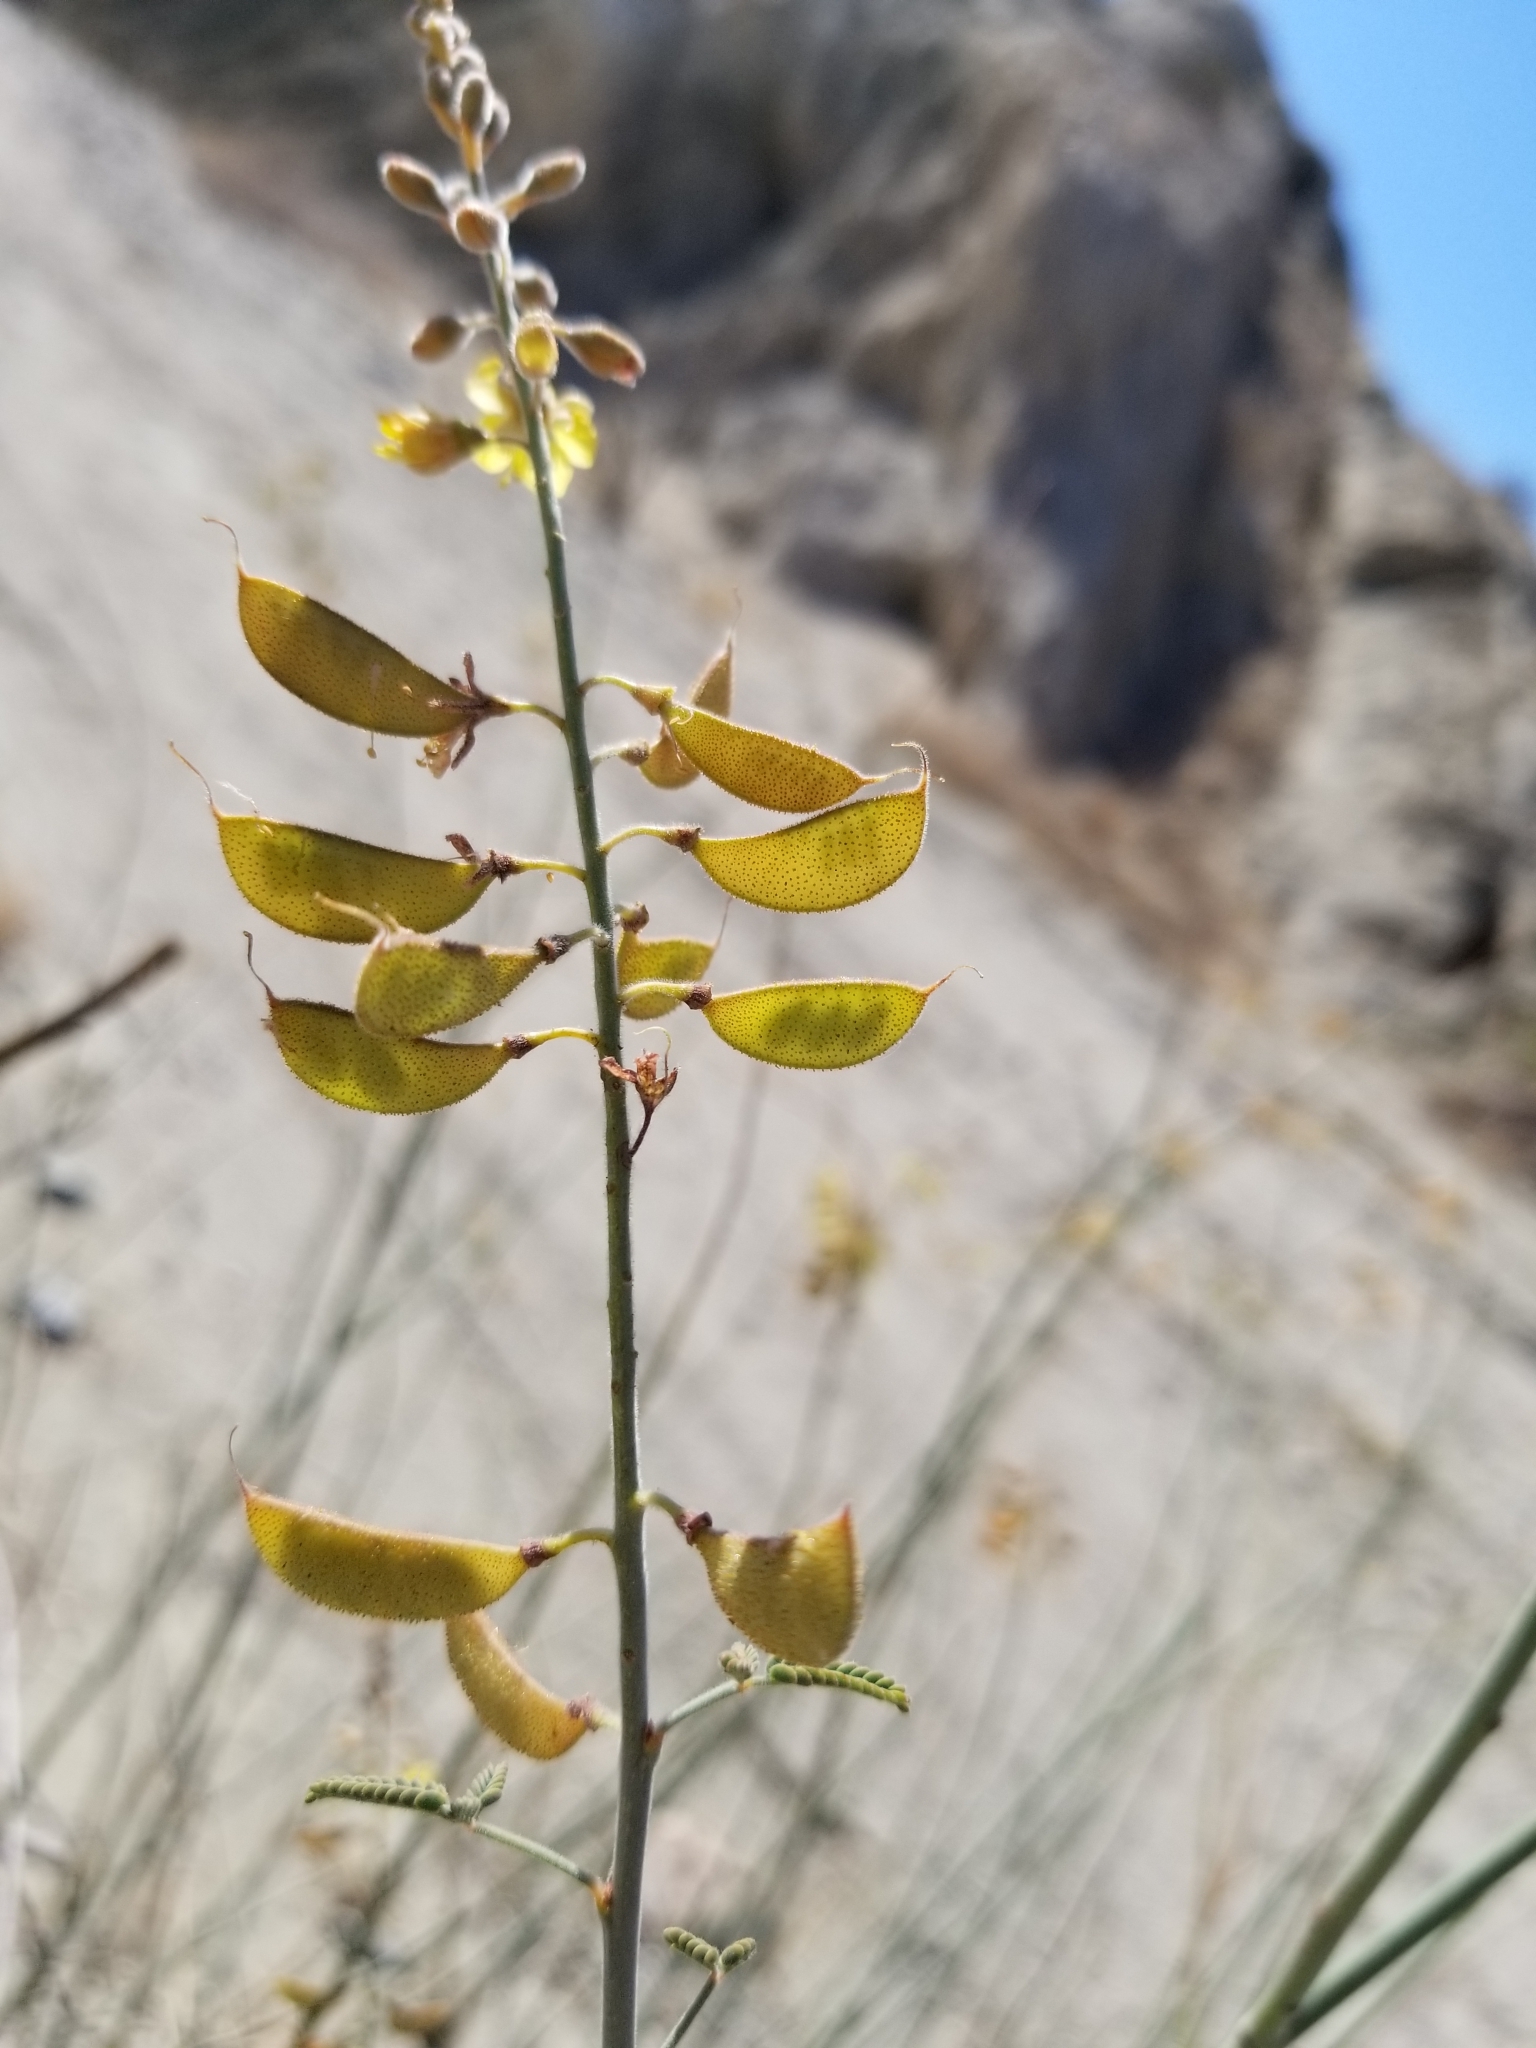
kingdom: Plantae
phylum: Tracheophyta
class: Magnoliopsida
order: Fabales
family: Fabaceae
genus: Hoffmannseggia
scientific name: Hoffmannseggia microphylla
